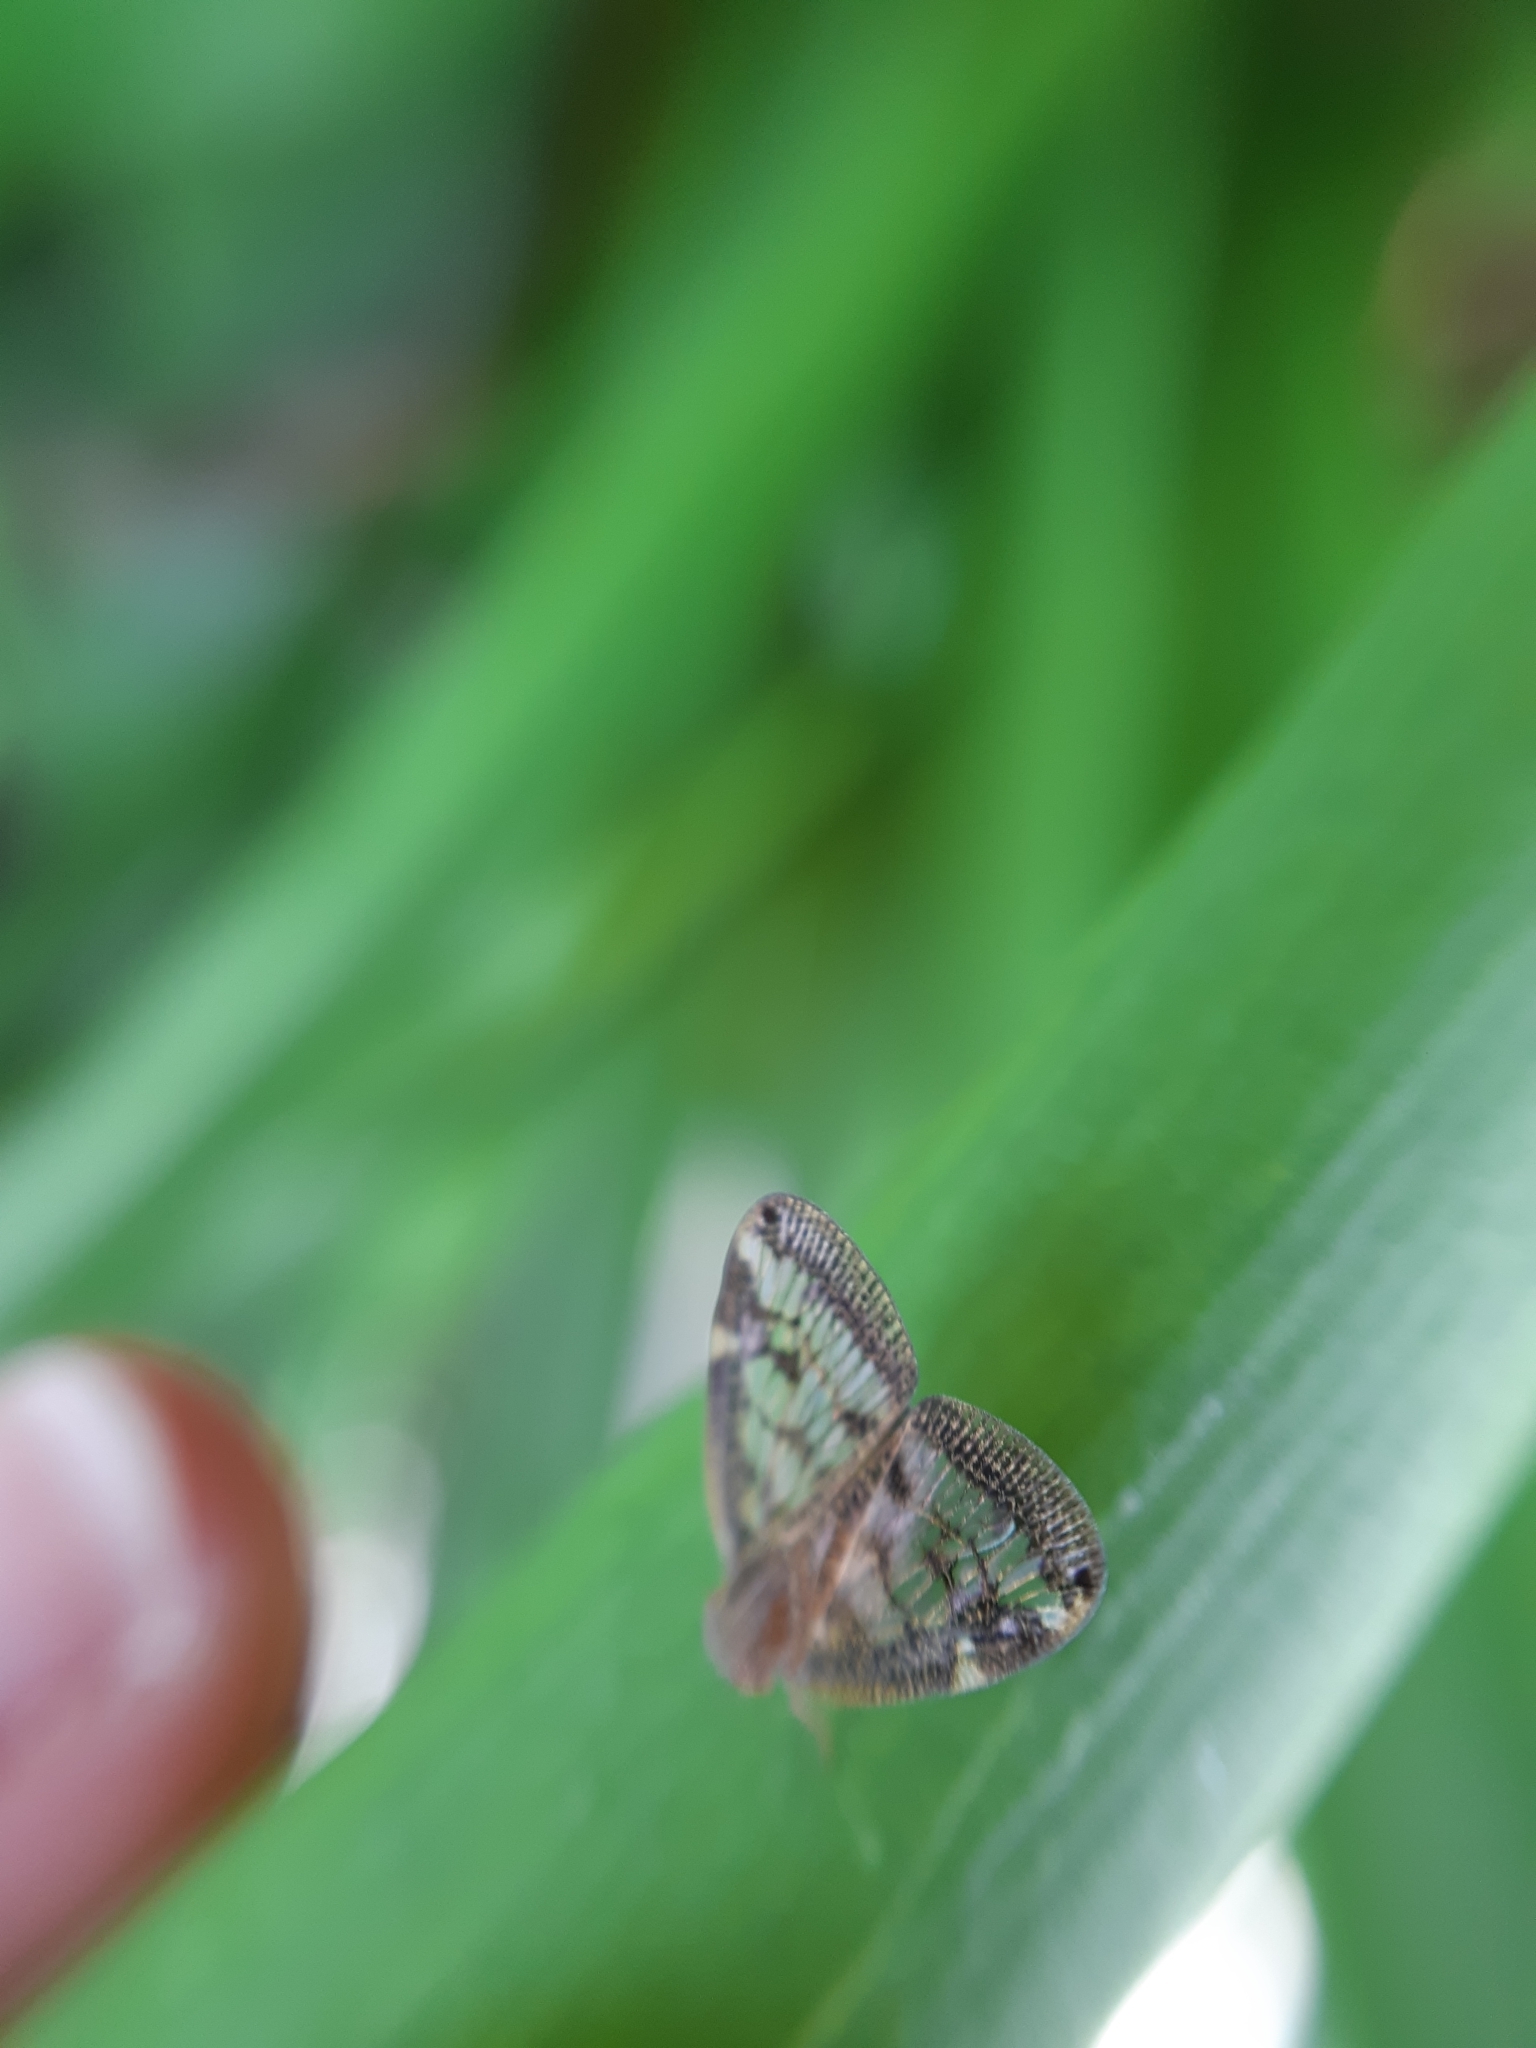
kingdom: Animalia
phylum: Arthropoda
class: Insecta
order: Hemiptera
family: Ricaniidae
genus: Scolypopa
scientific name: Scolypopa australis
